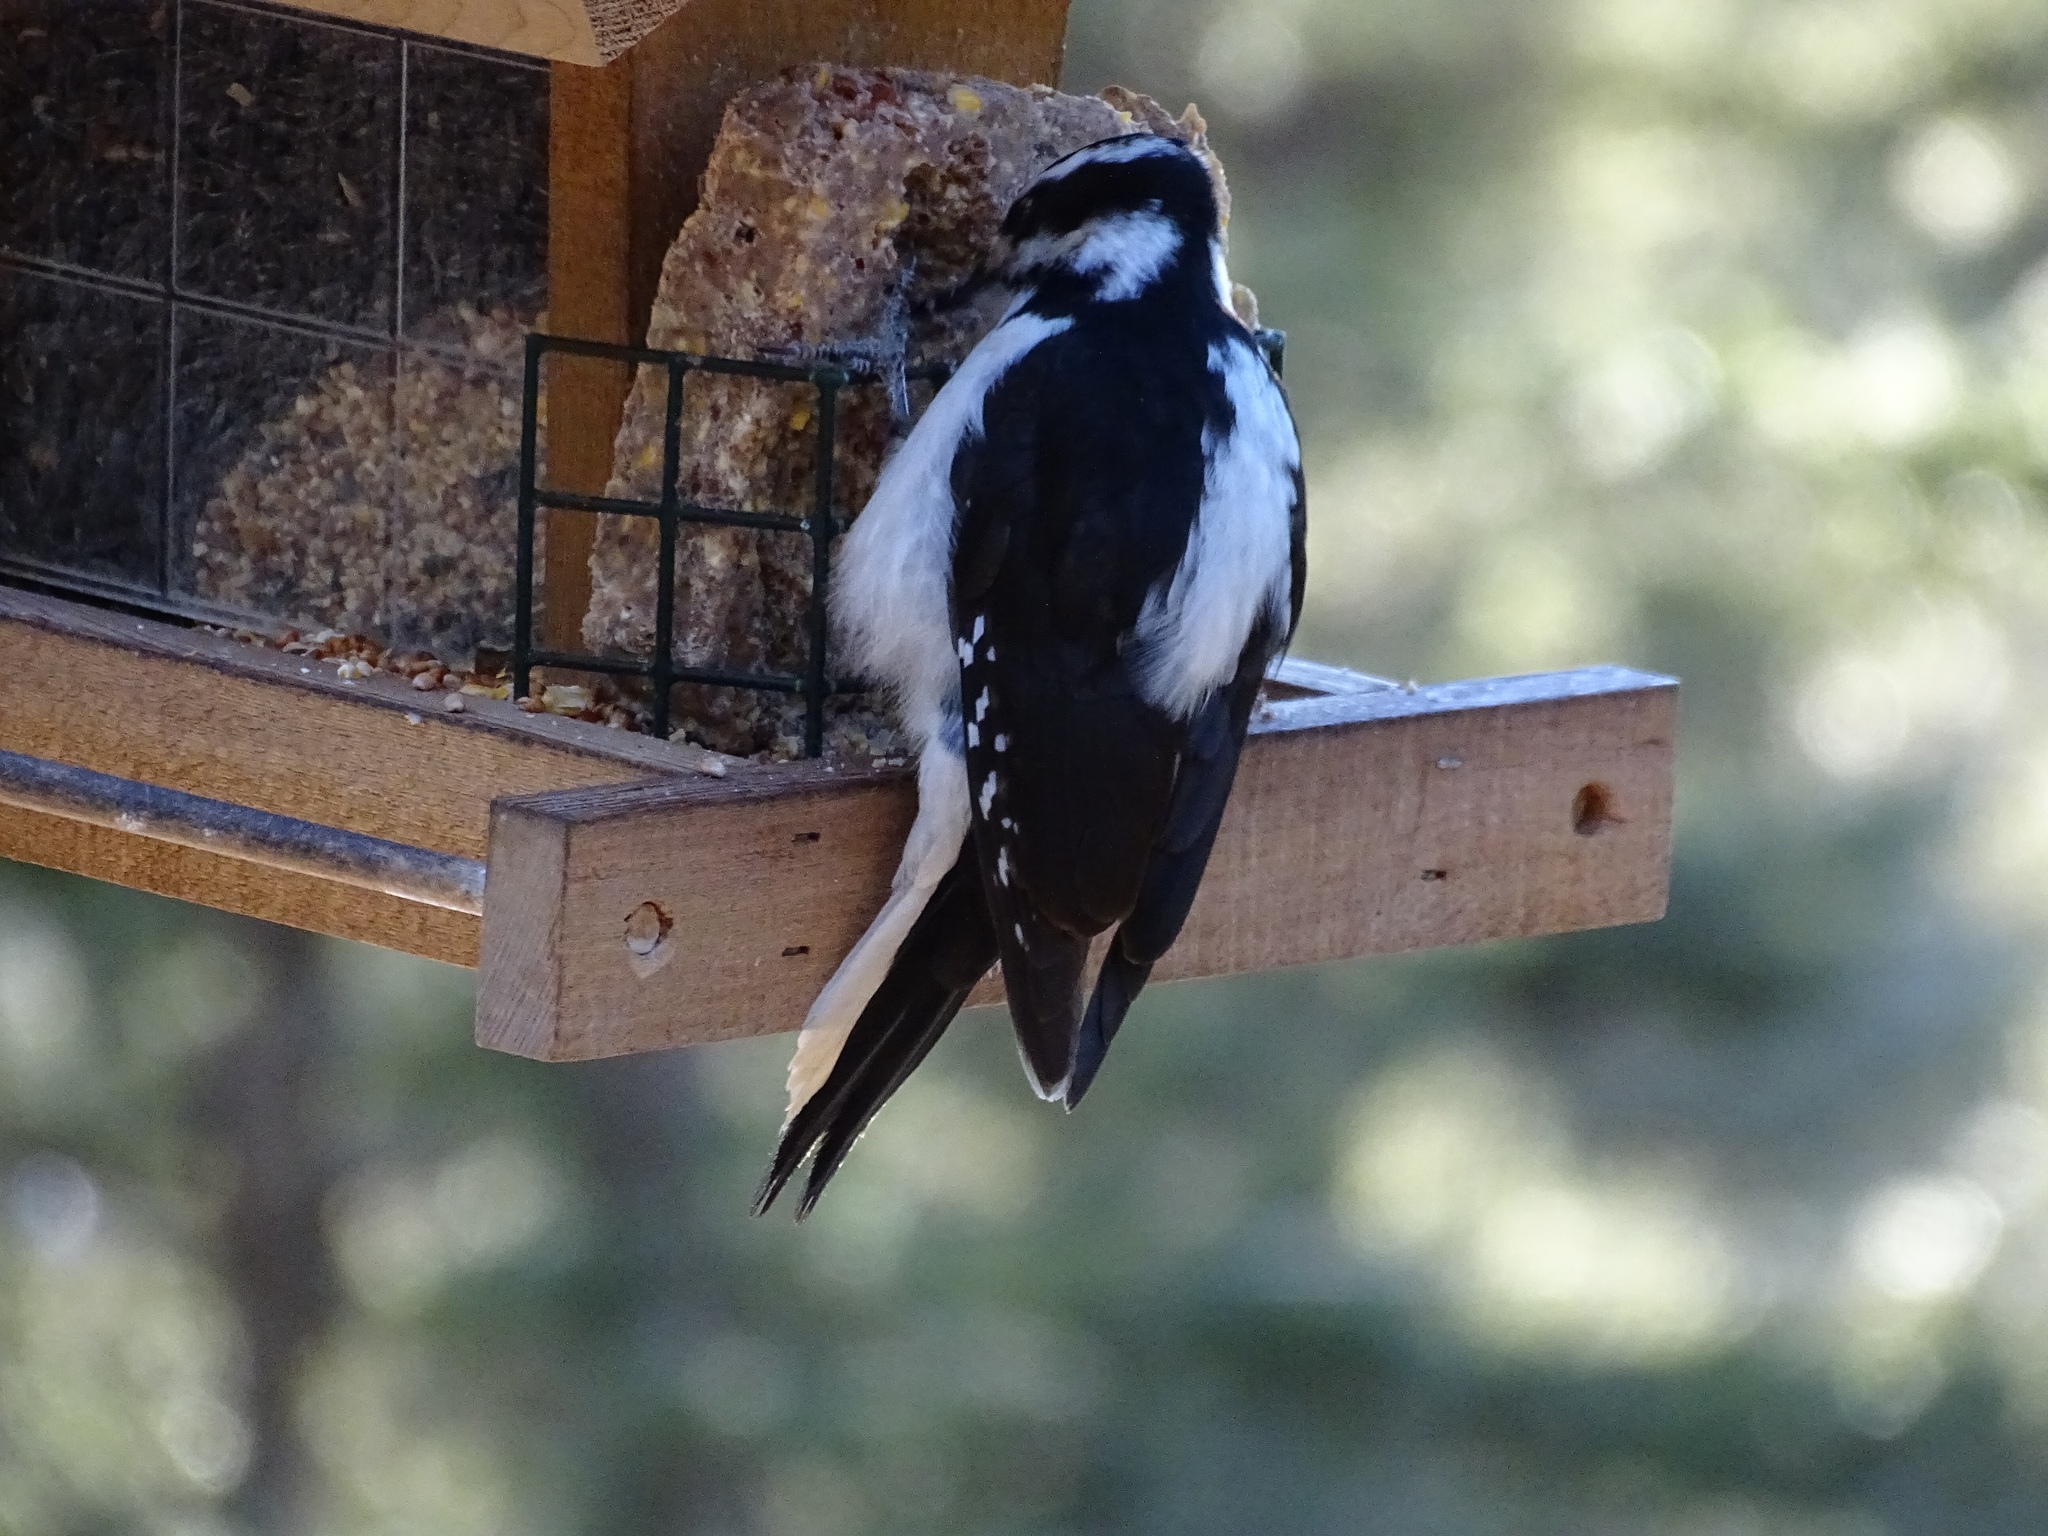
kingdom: Animalia
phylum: Chordata
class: Aves
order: Piciformes
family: Picidae
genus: Leuconotopicus
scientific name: Leuconotopicus villosus
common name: Hairy woodpecker
